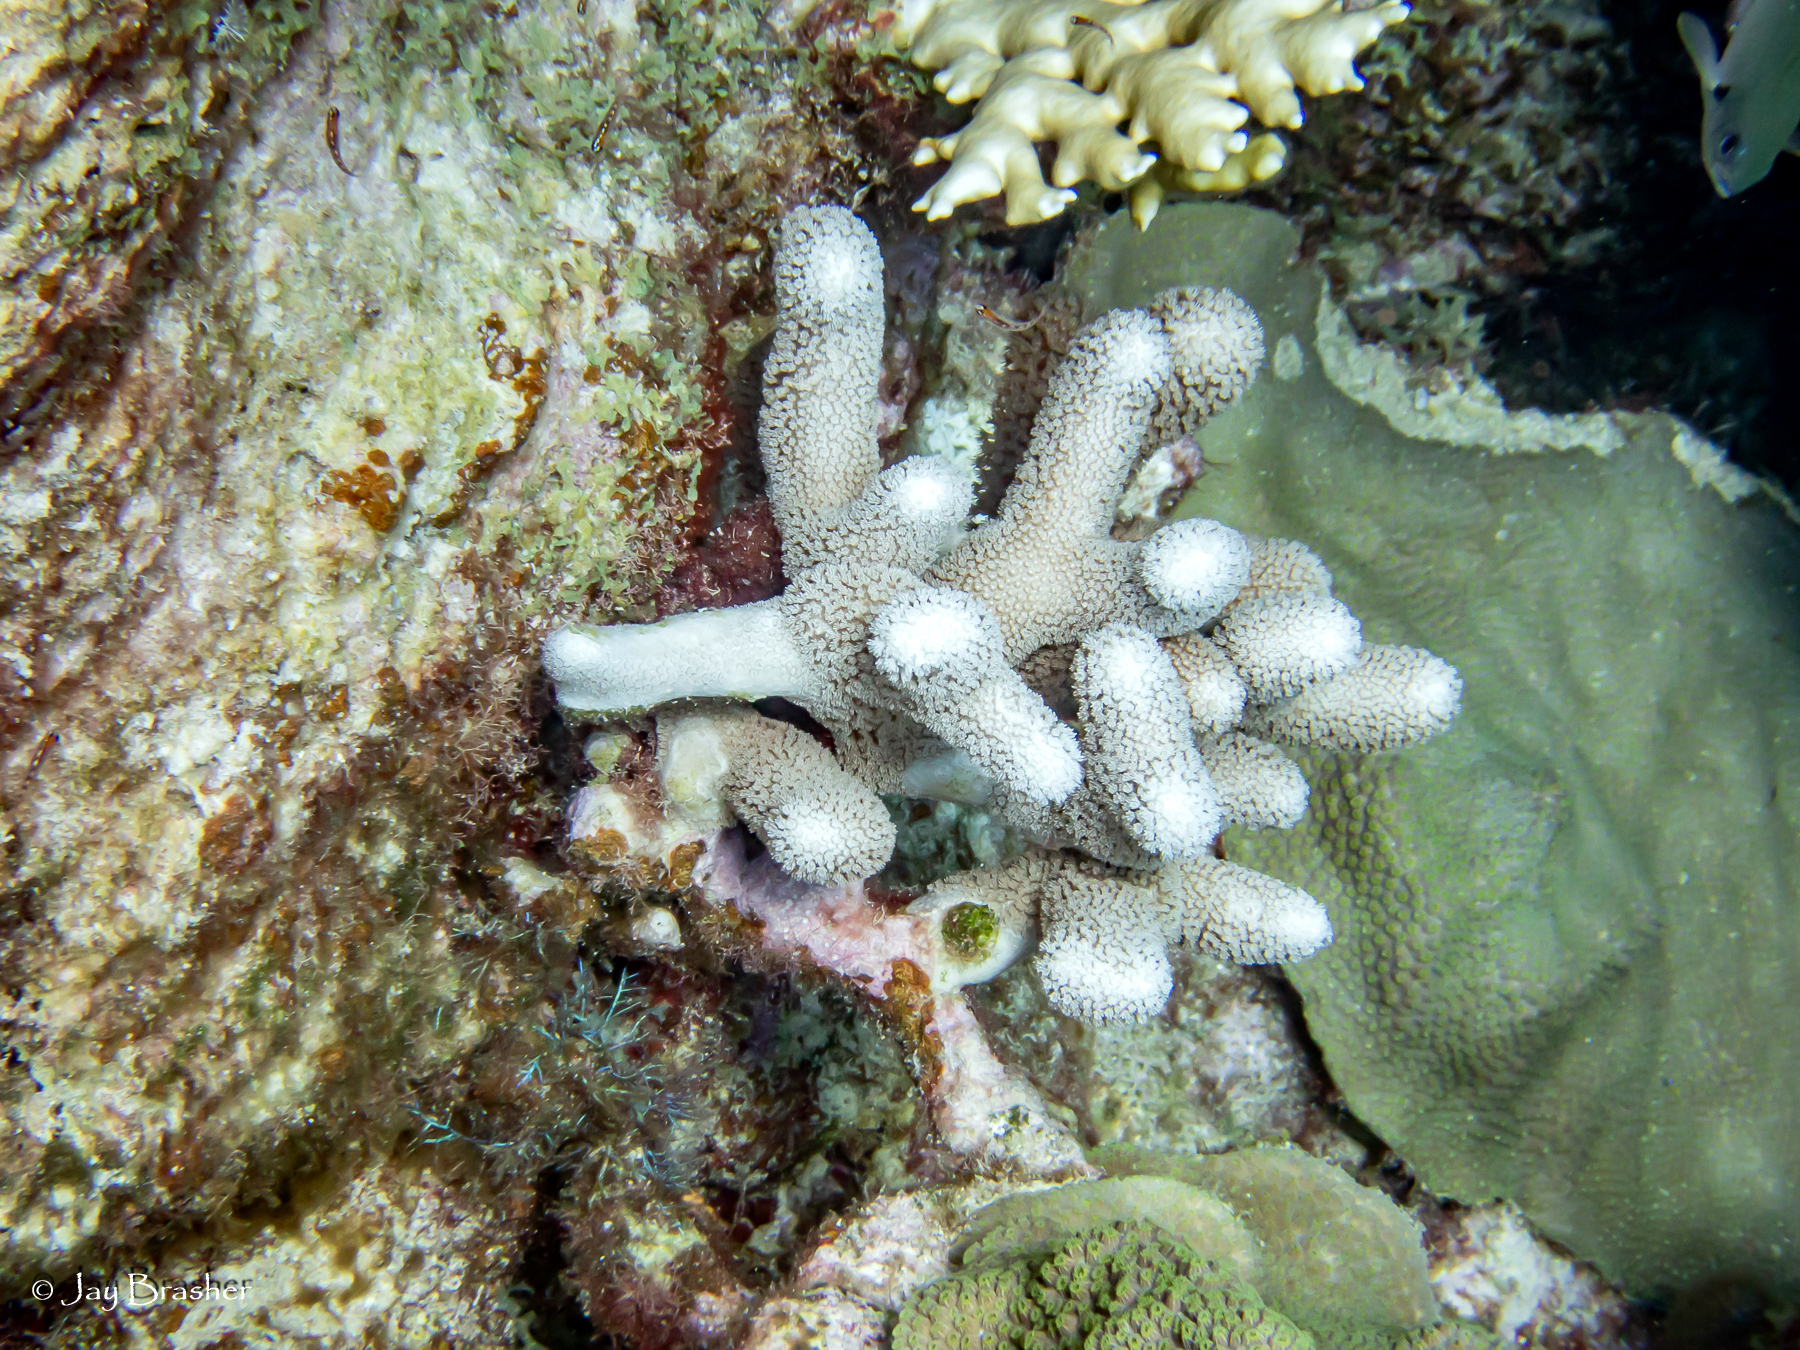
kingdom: Animalia
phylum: Cnidaria
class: Anthozoa
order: Scleractinia
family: Poritidae
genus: Porites
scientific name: Porites porites
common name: Finger coral
